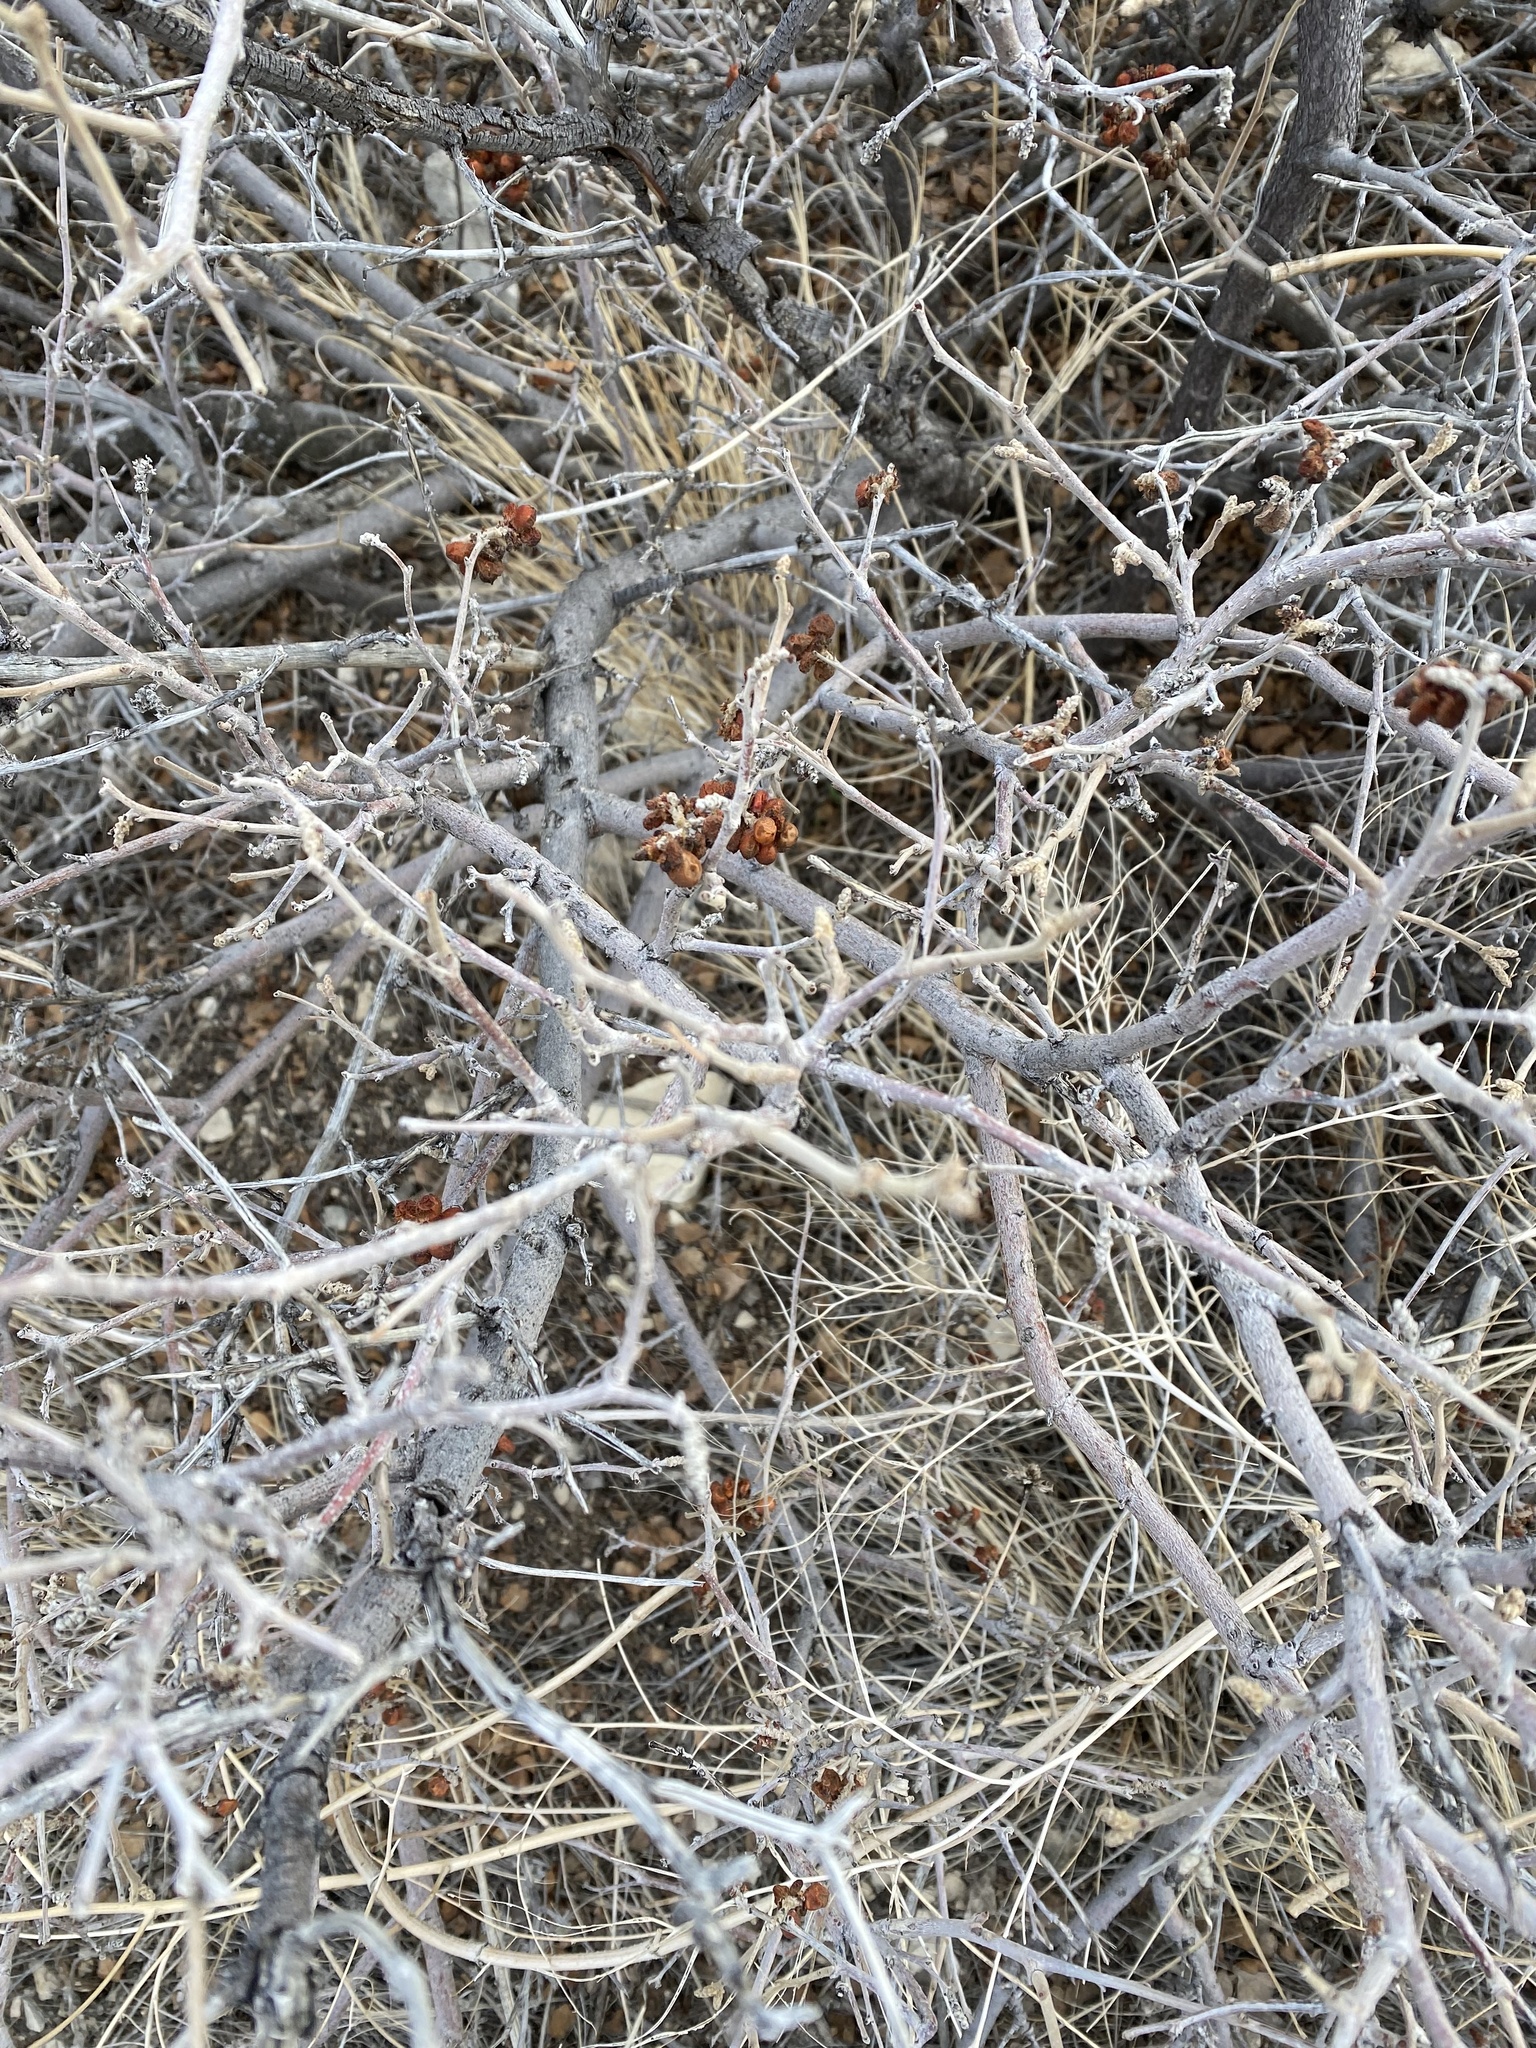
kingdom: Plantae
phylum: Tracheophyta
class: Magnoliopsida
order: Sapindales
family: Anacardiaceae
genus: Rhus
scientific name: Rhus trilobata
